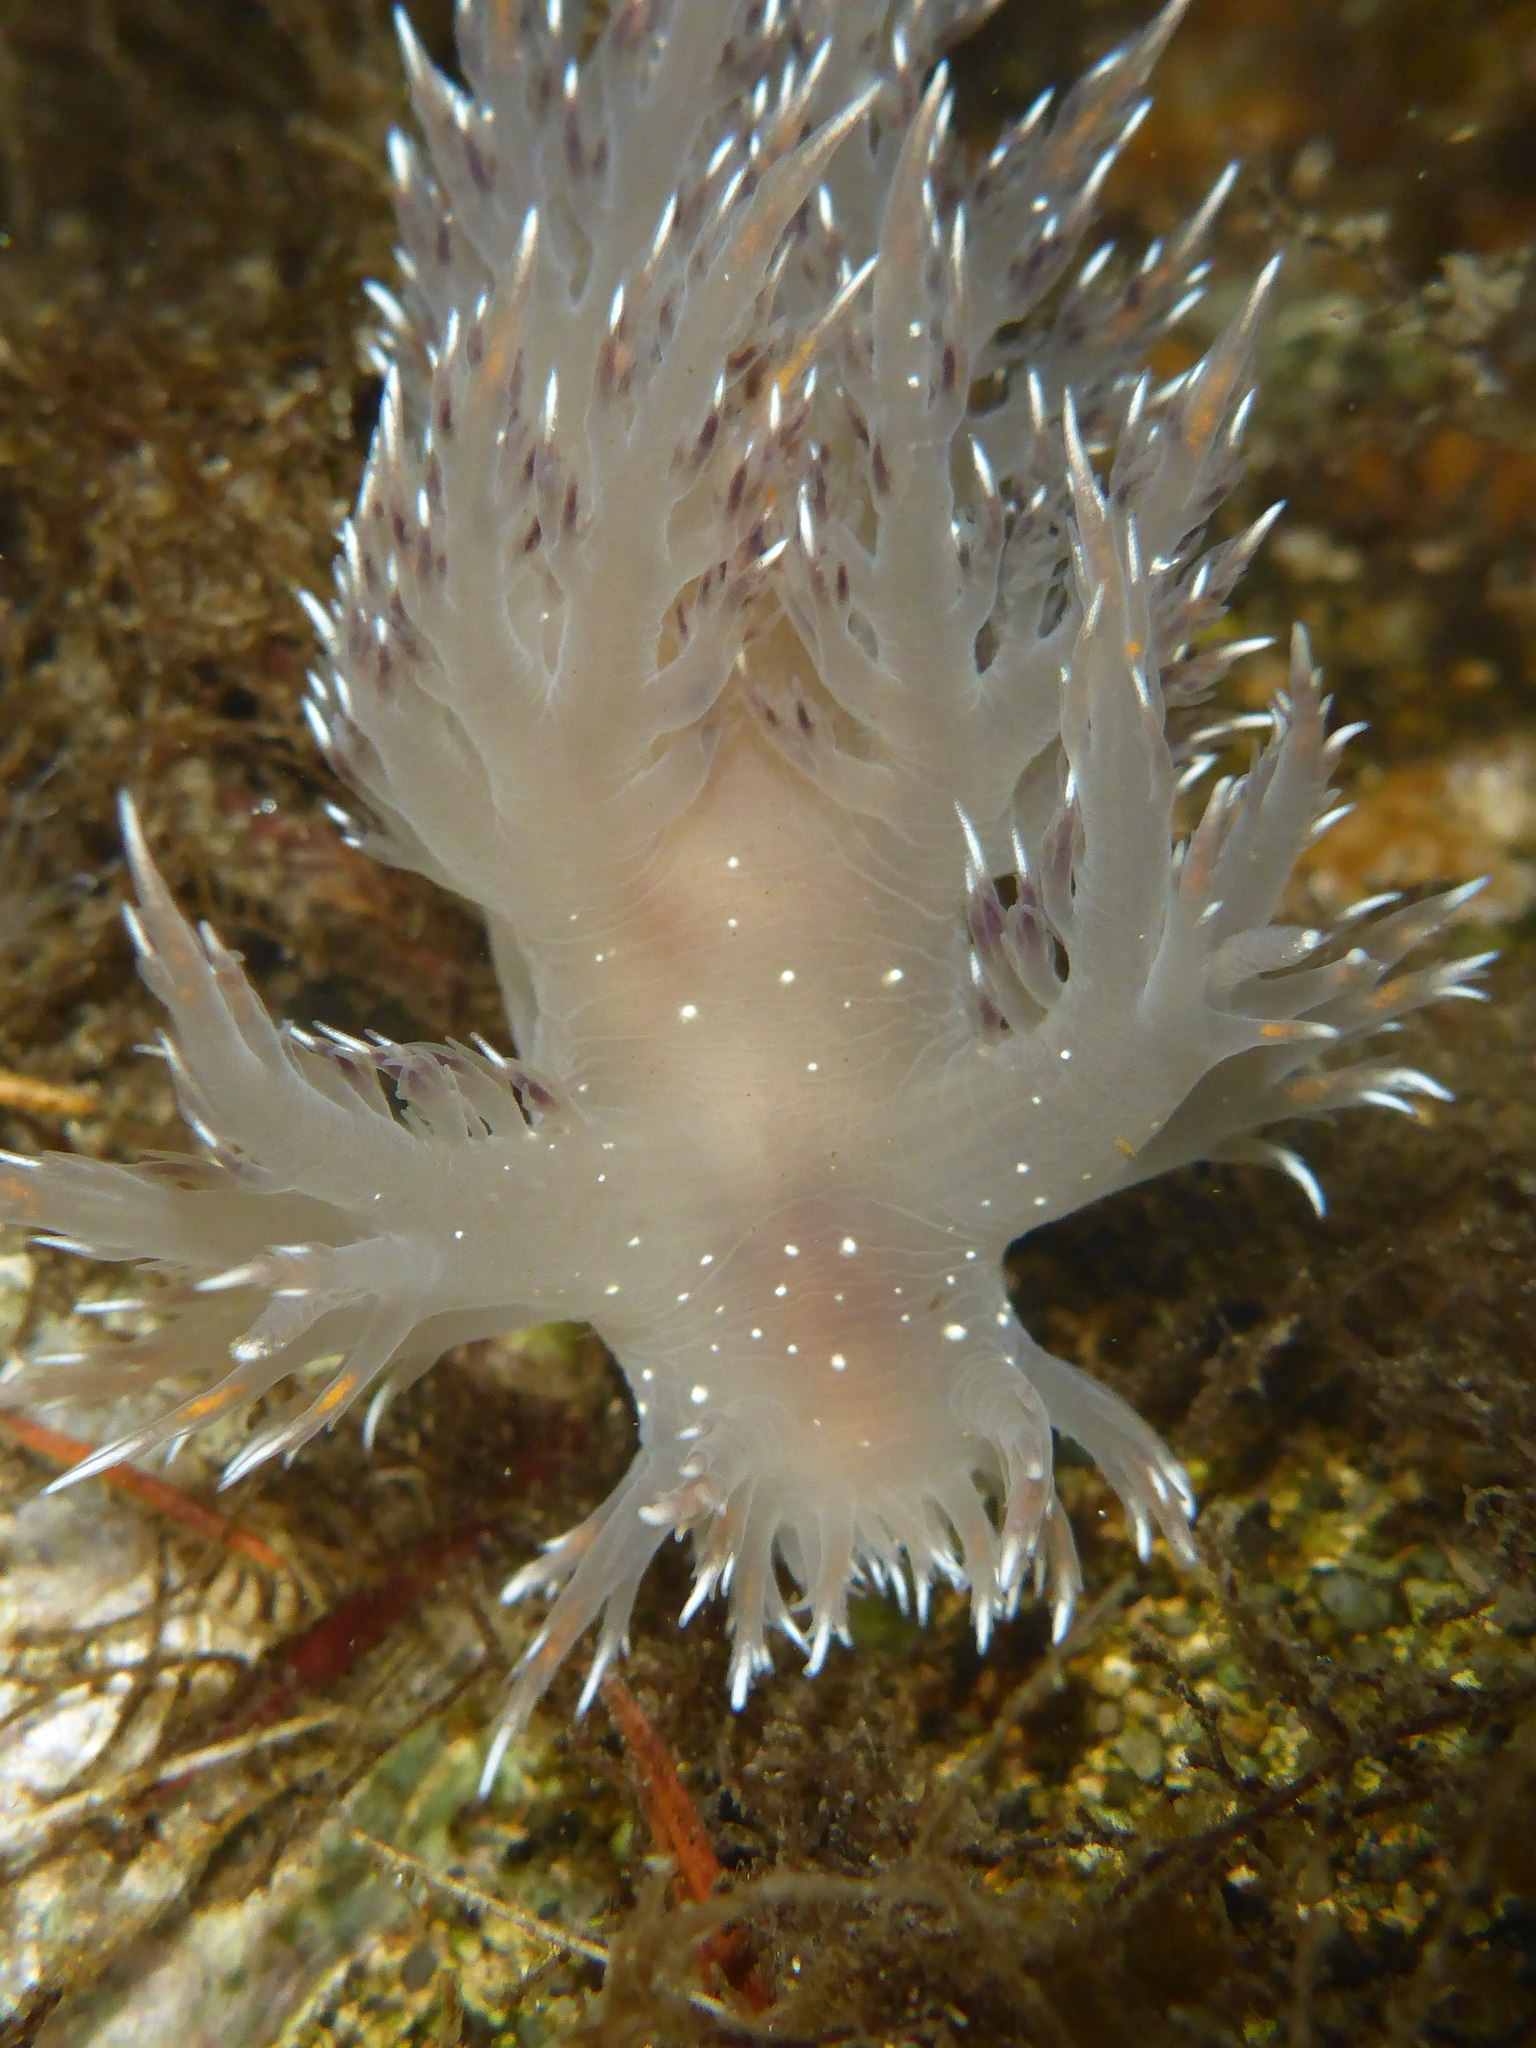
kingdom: Animalia
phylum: Mollusca
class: Gastropoda
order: Nudibranchia
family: Dendronotidae
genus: Dendronotus
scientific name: Dendronotus iris
